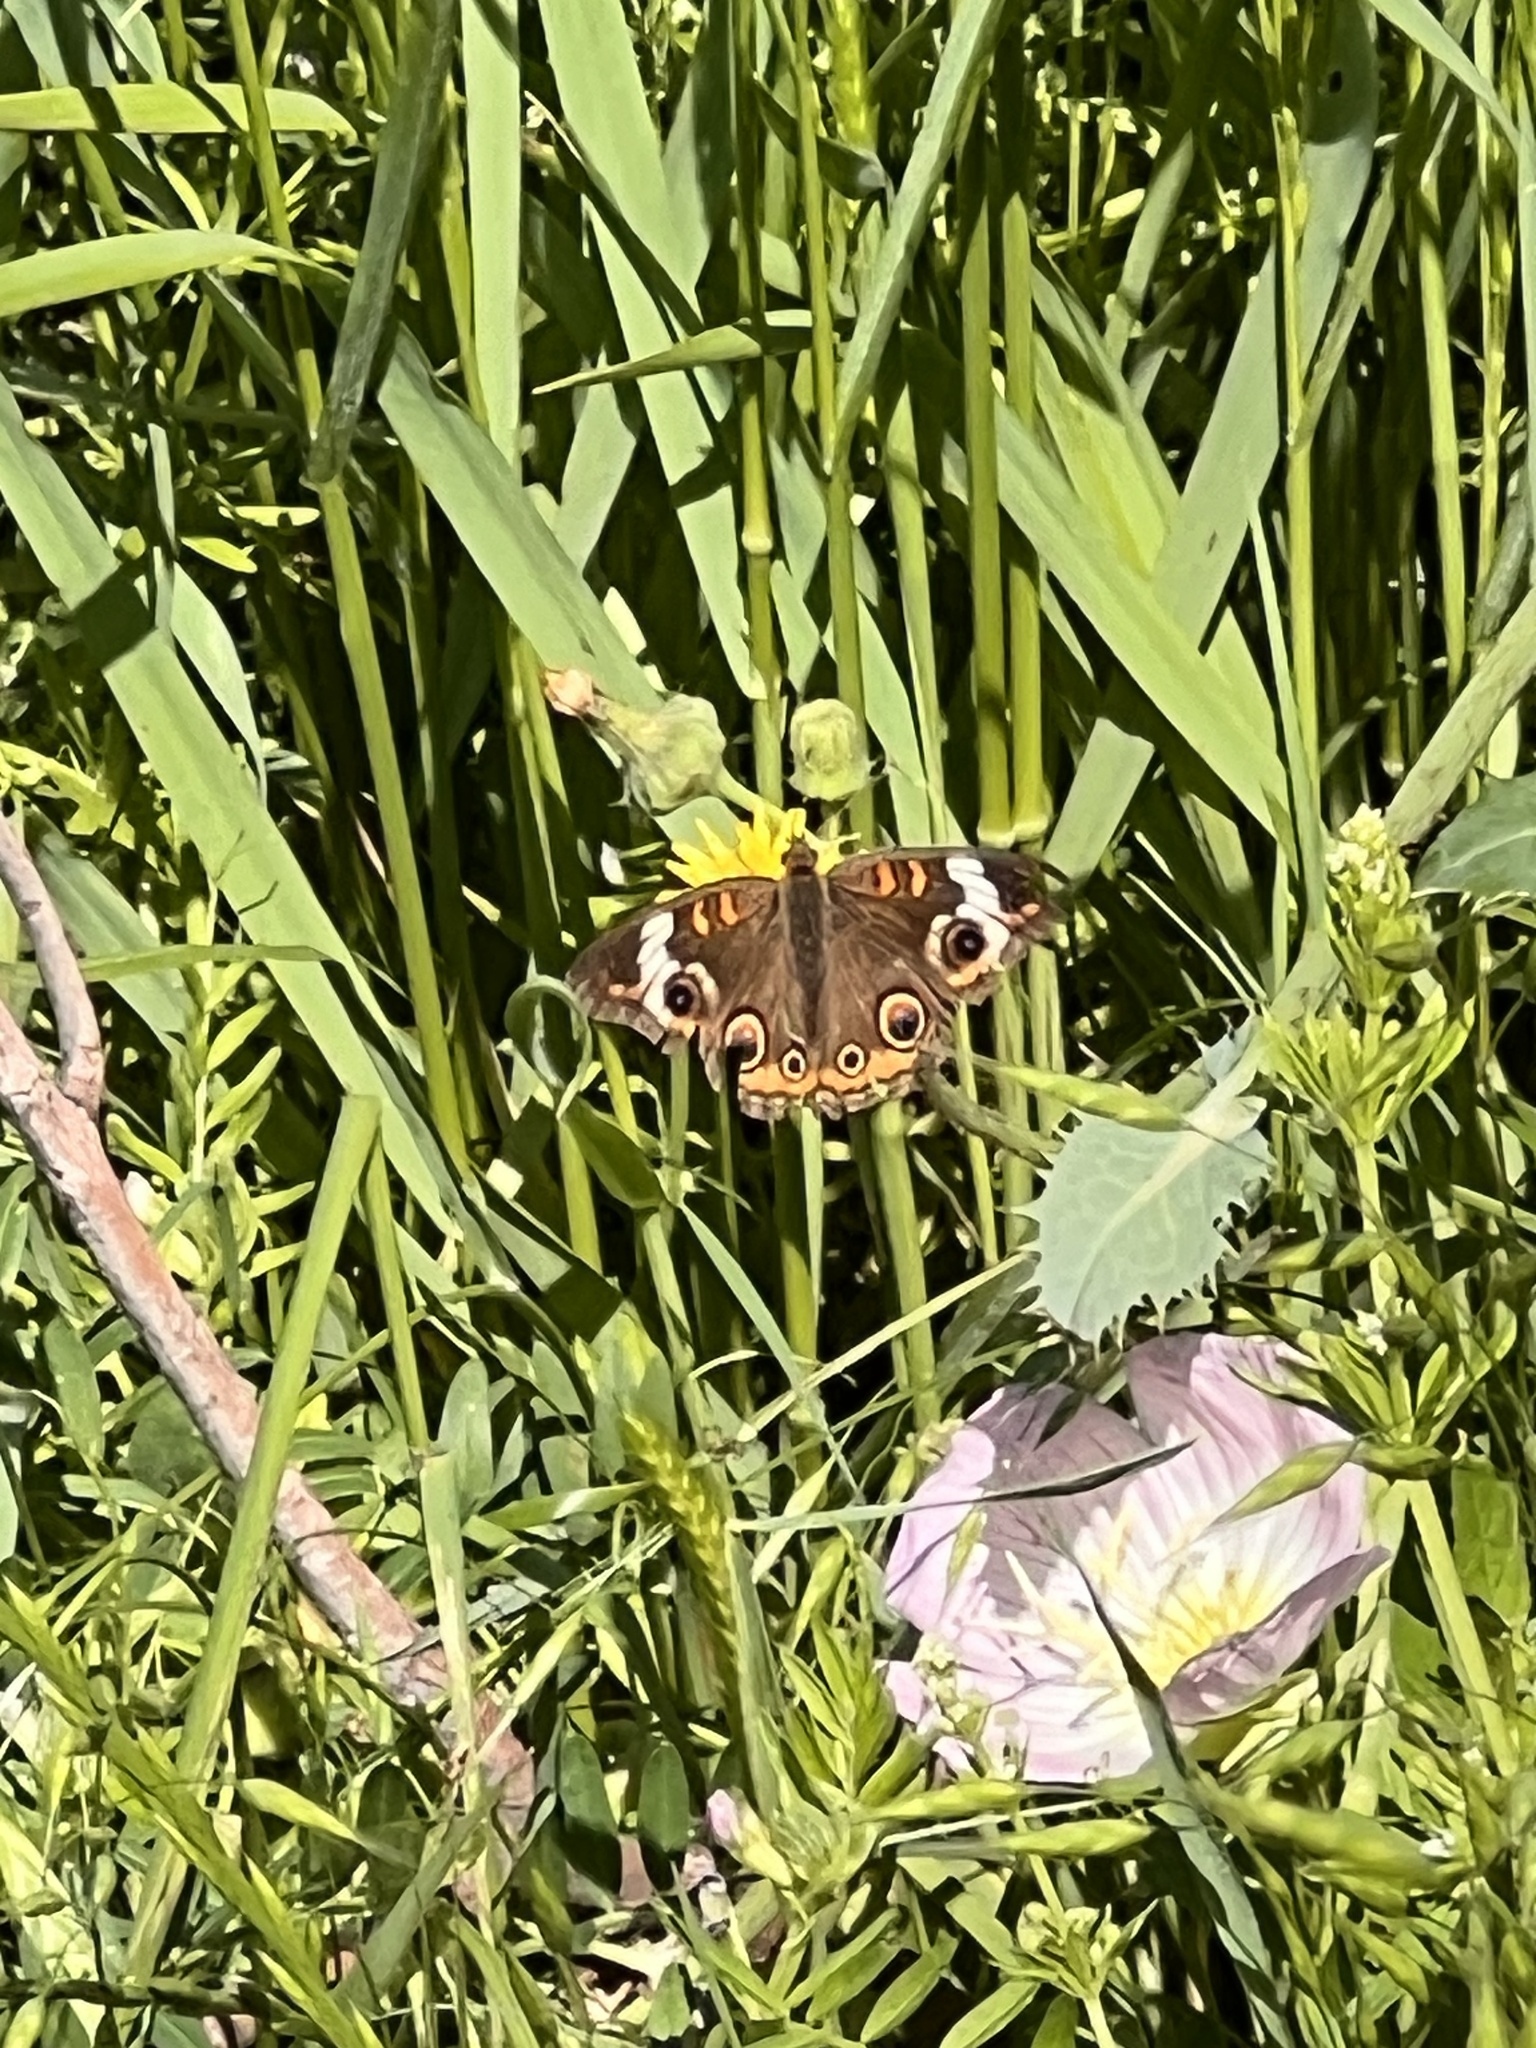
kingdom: Animalia
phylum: Arthropoda
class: Insecta
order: Lepidoptera
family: Nymphalidae
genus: Junonia
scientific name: Junonia coenia
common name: Common buckeye
